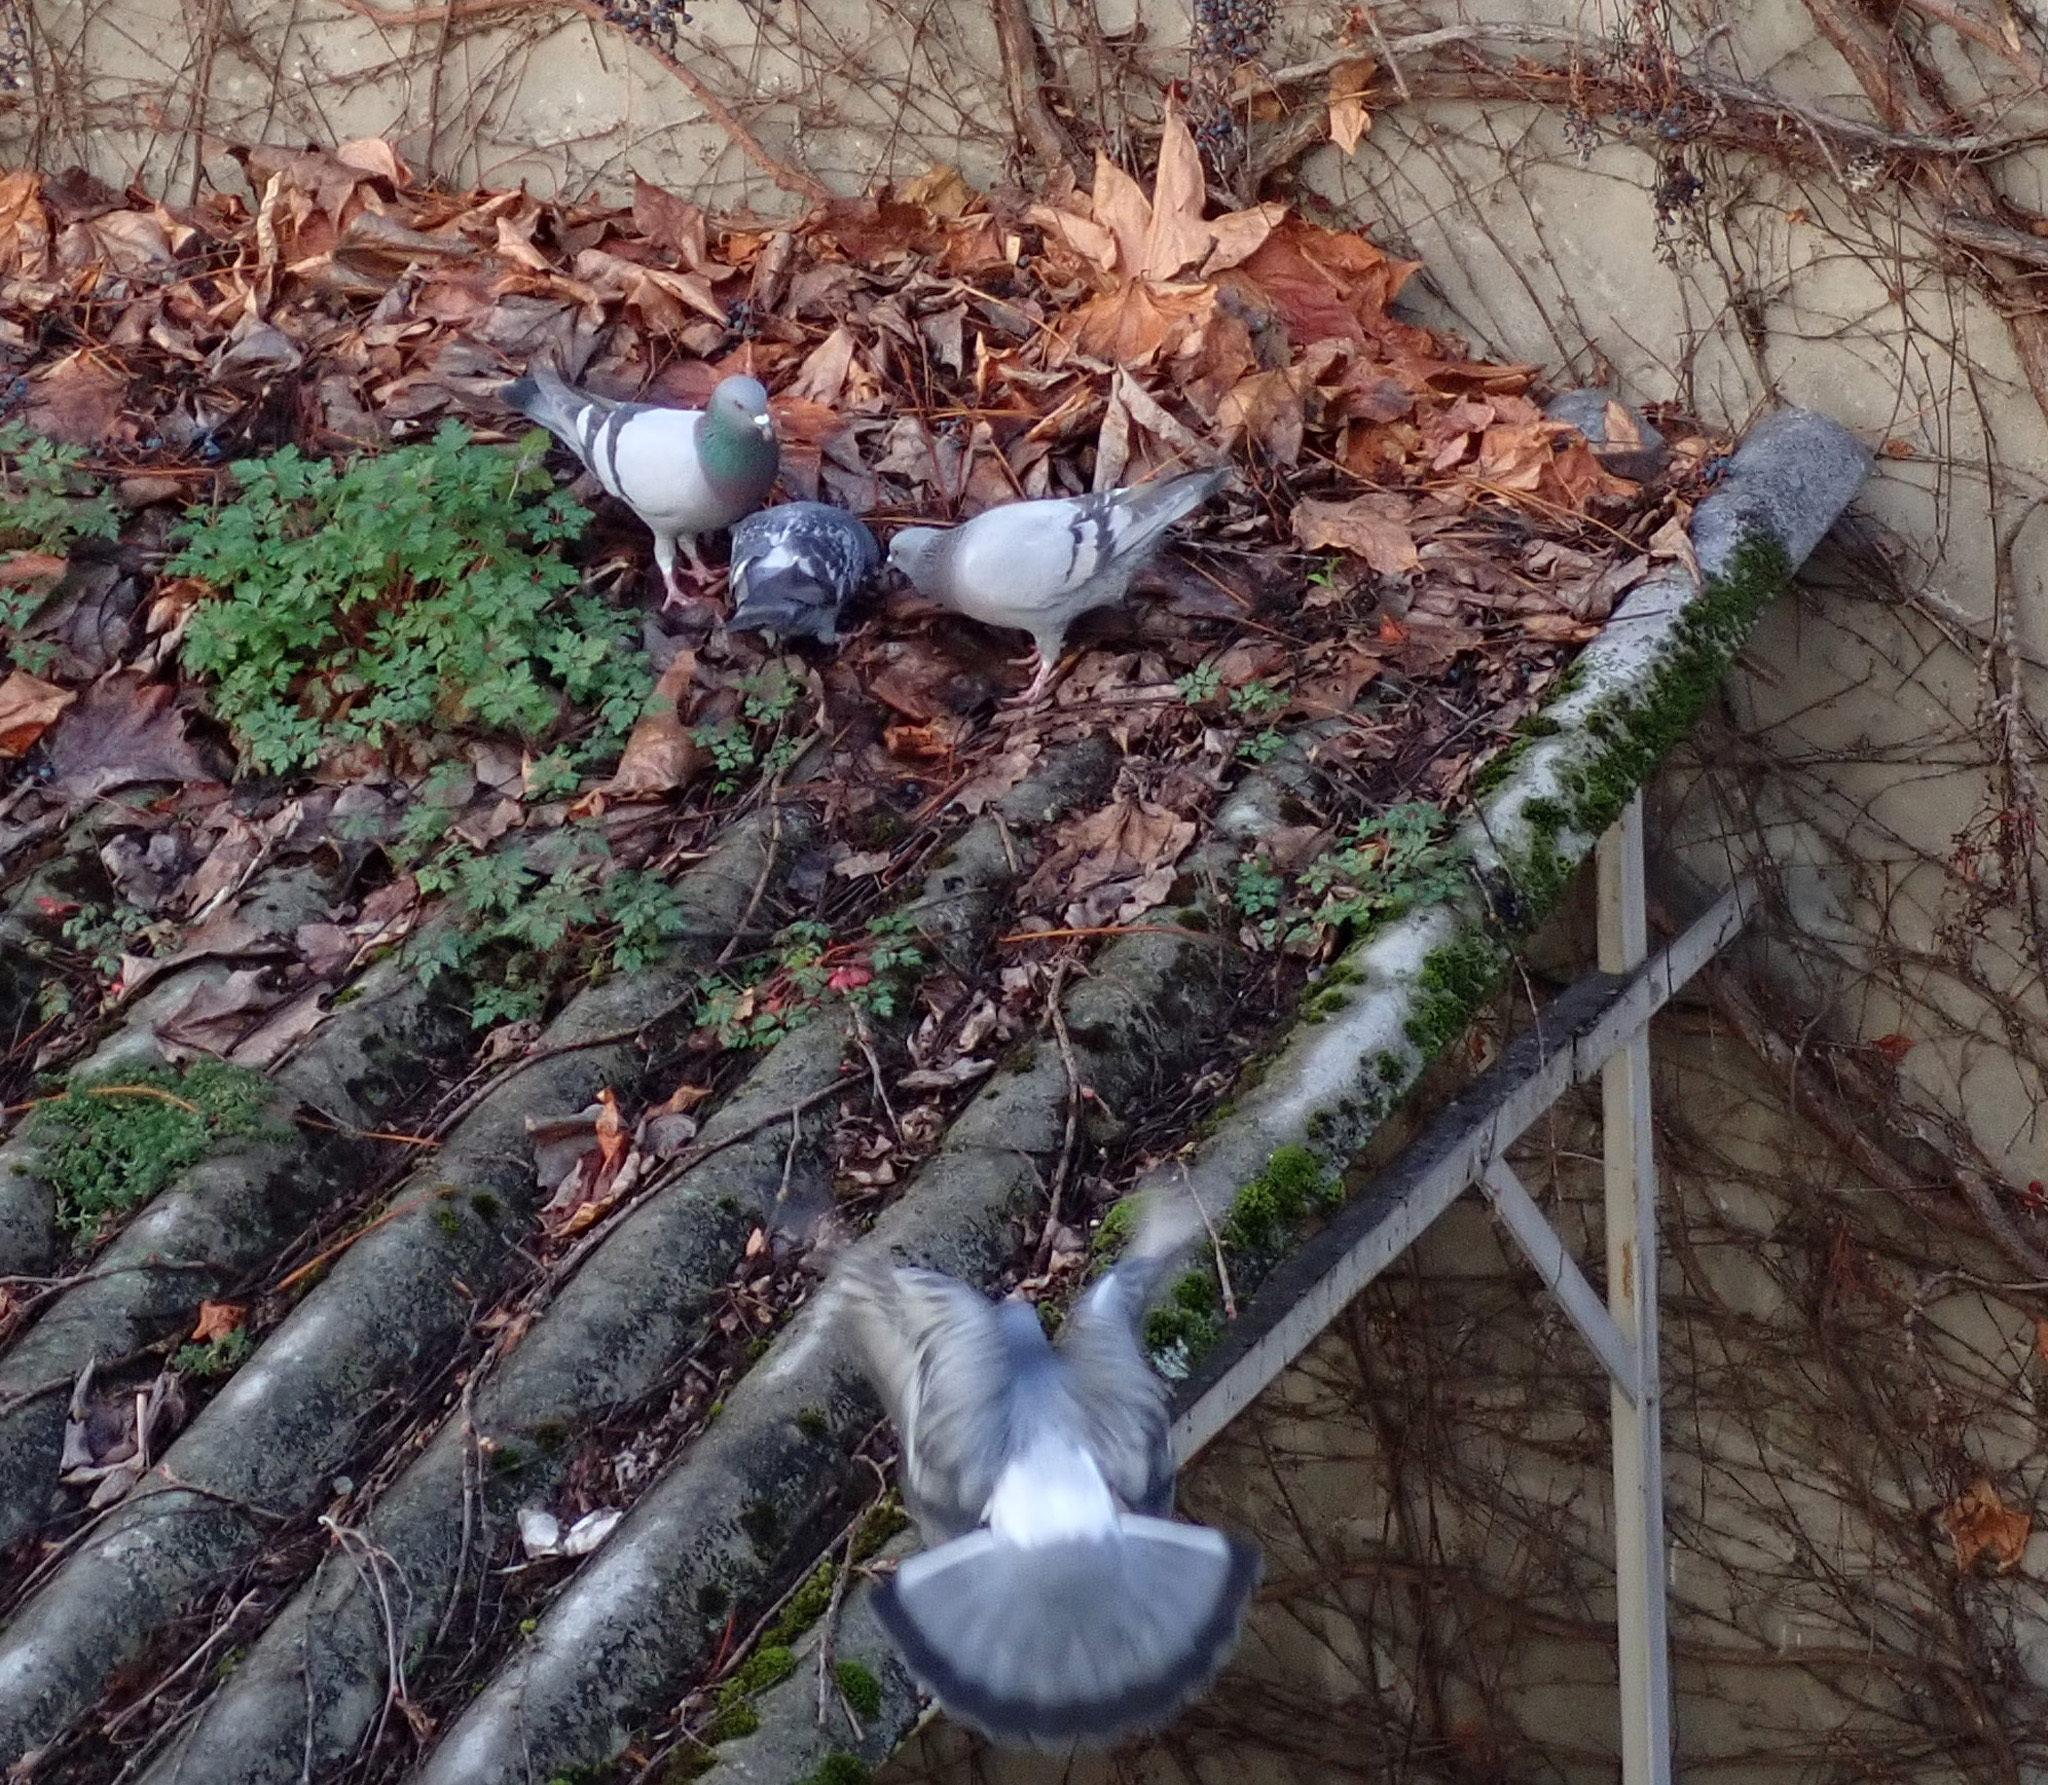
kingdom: Animalia
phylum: Chordata
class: Aves
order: Columbiformes
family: Columbidae
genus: Columba
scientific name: Columba livia
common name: Rock pigeon
